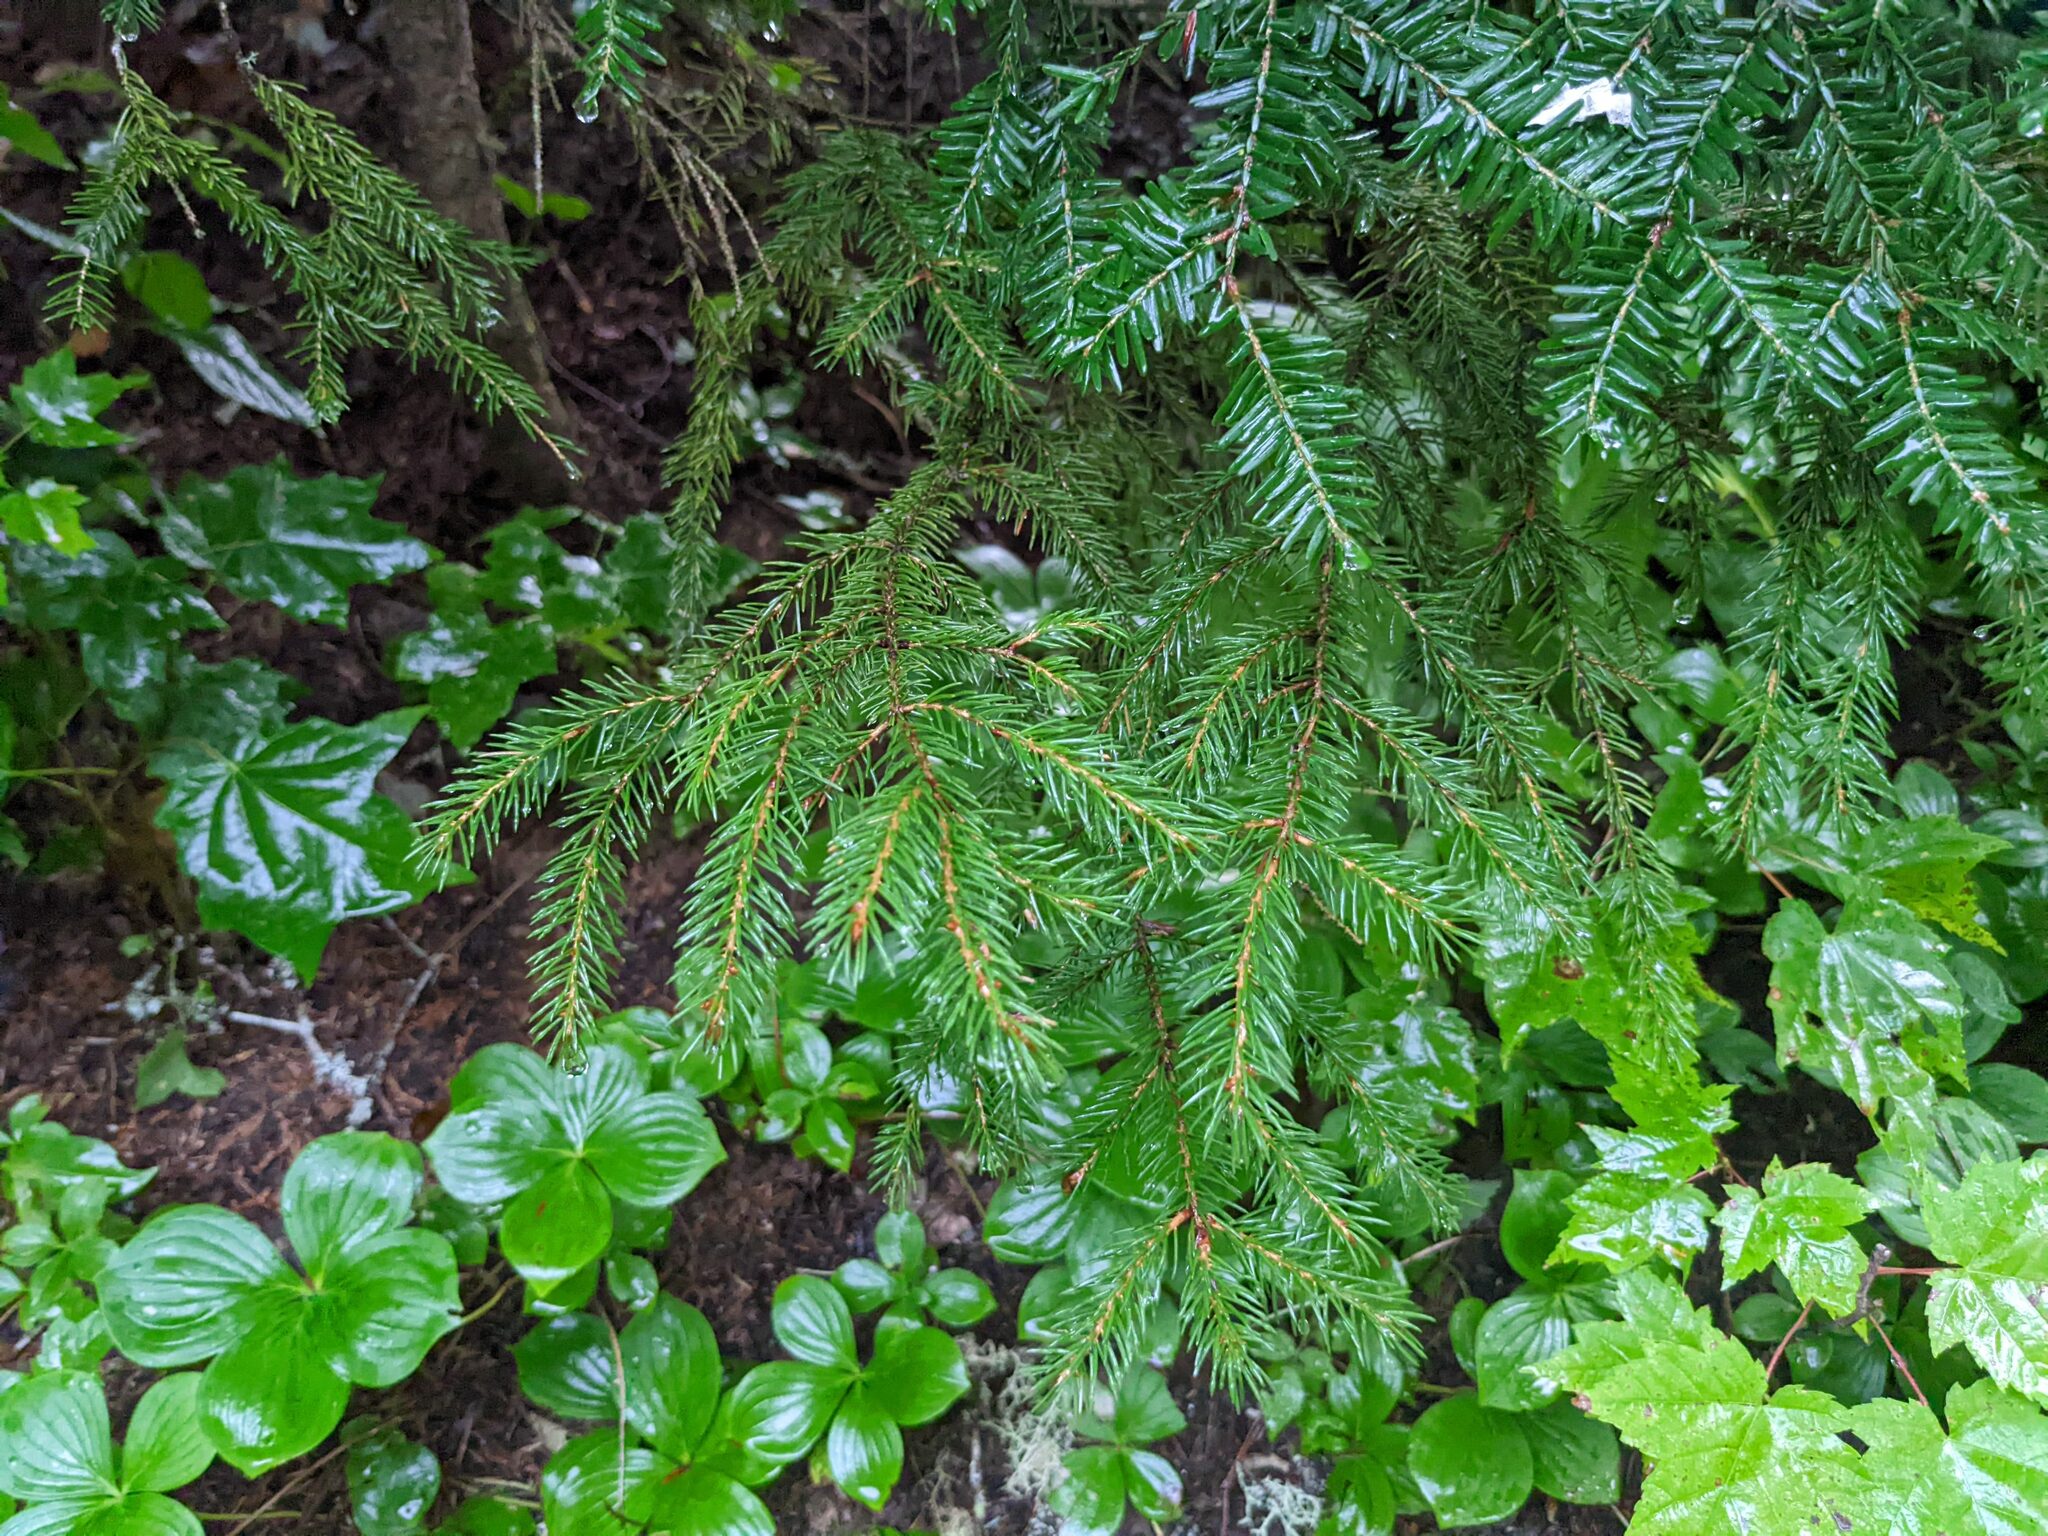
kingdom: Plantae
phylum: Tracheophyta
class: Pinopsida
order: Pinales
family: Pinaceae
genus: Picea
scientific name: Picea rubens
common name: Red spruce
